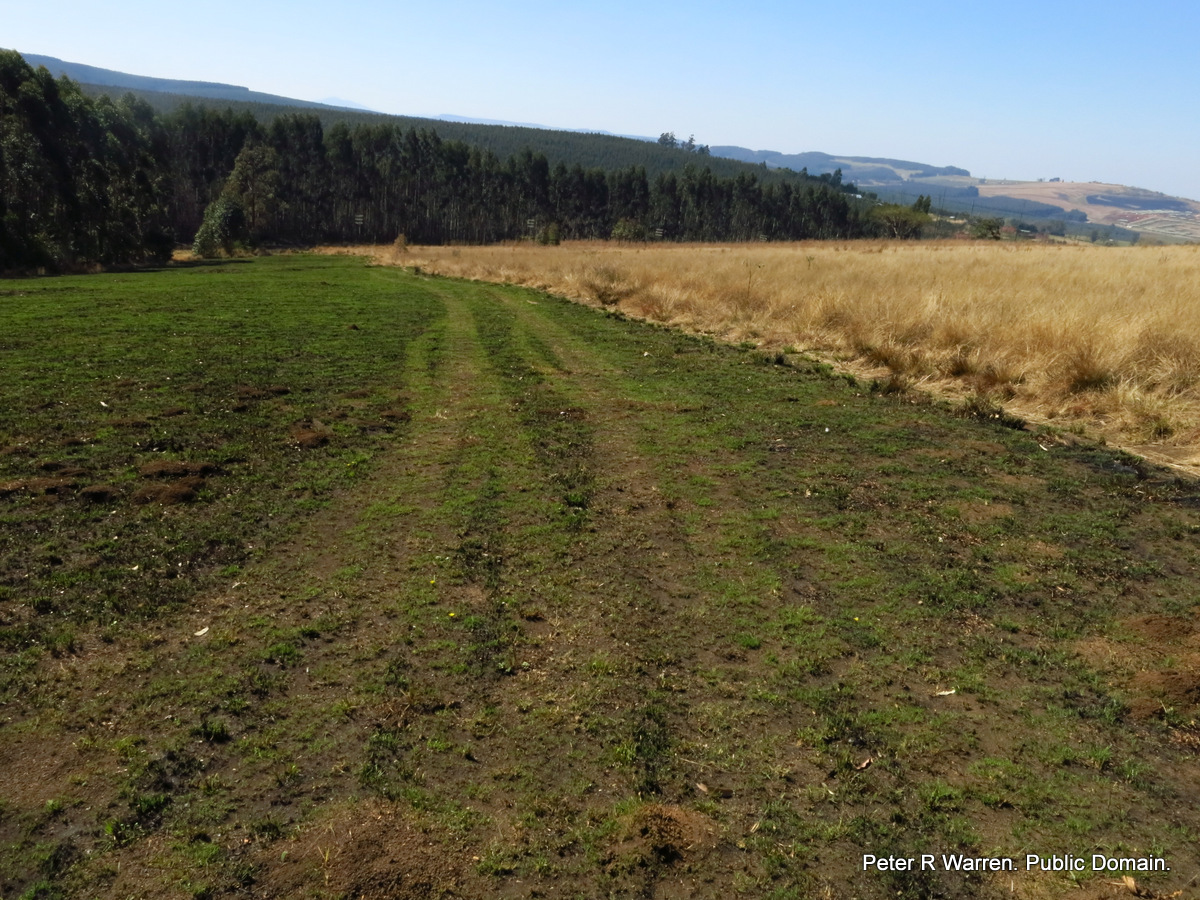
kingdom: Plantae
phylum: Tracheophyta
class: Magnoliopsida
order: Asterales
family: Asteraceae
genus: Gazania
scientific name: Gazania krebsiana
